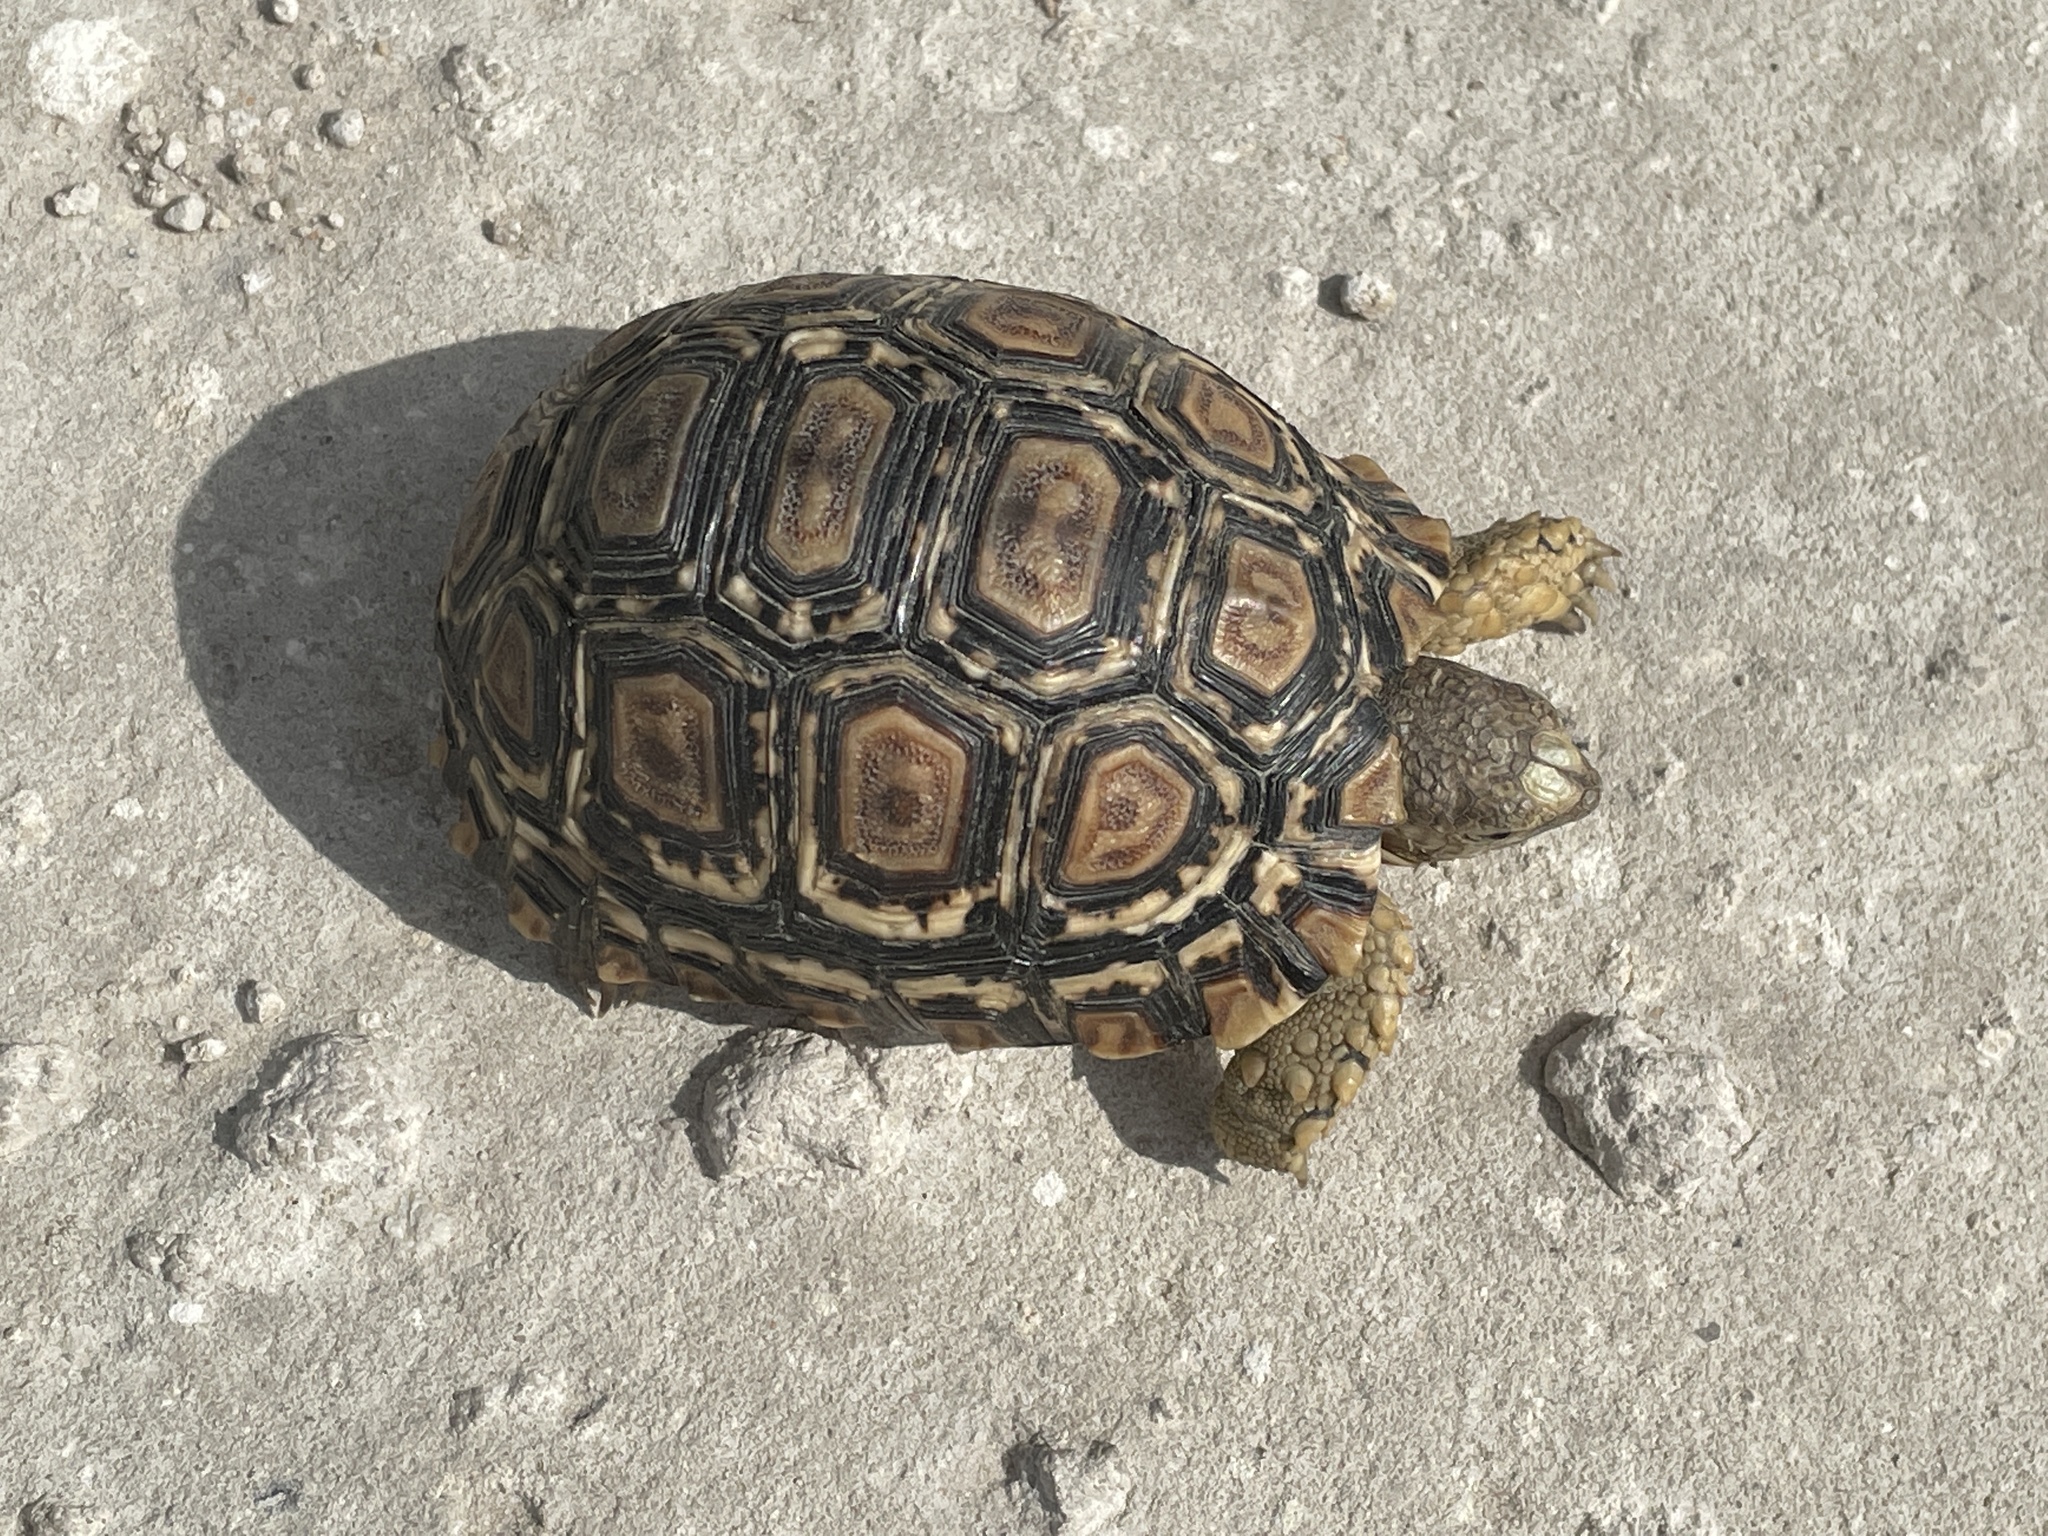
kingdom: Animalia
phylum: Chordata
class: Testudines
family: Testudinidae
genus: Stigmochelys
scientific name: Stigmochelys pardalis
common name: Leopard tortoise
